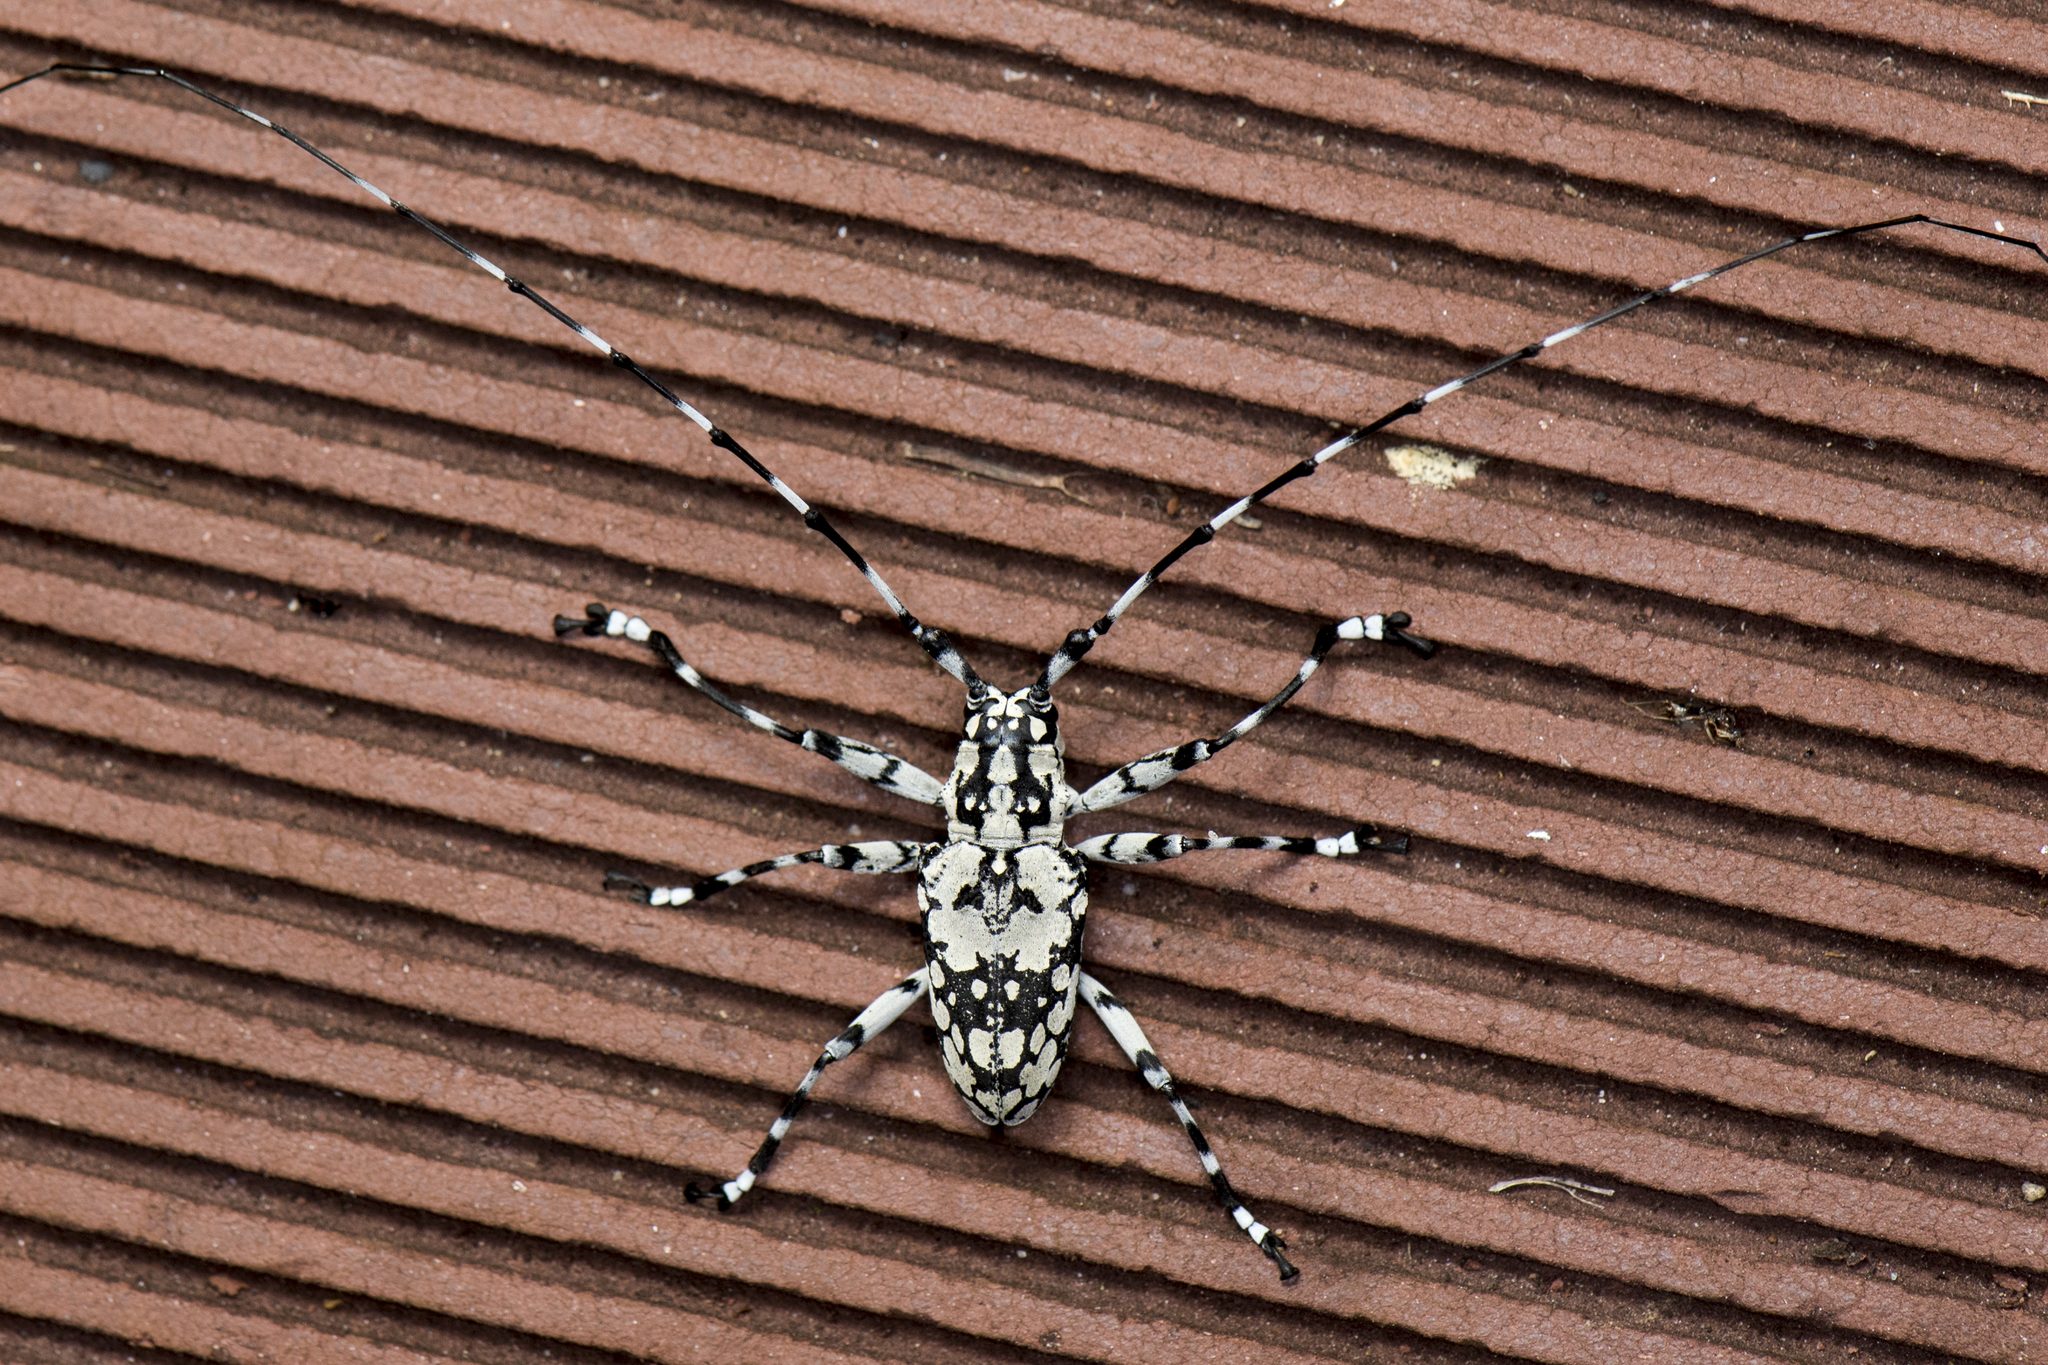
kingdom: Animalia
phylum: Arthropoda
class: Insecta
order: Coleoptera
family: Cerambycidae
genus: Palimna
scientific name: Palimna palimnoides
